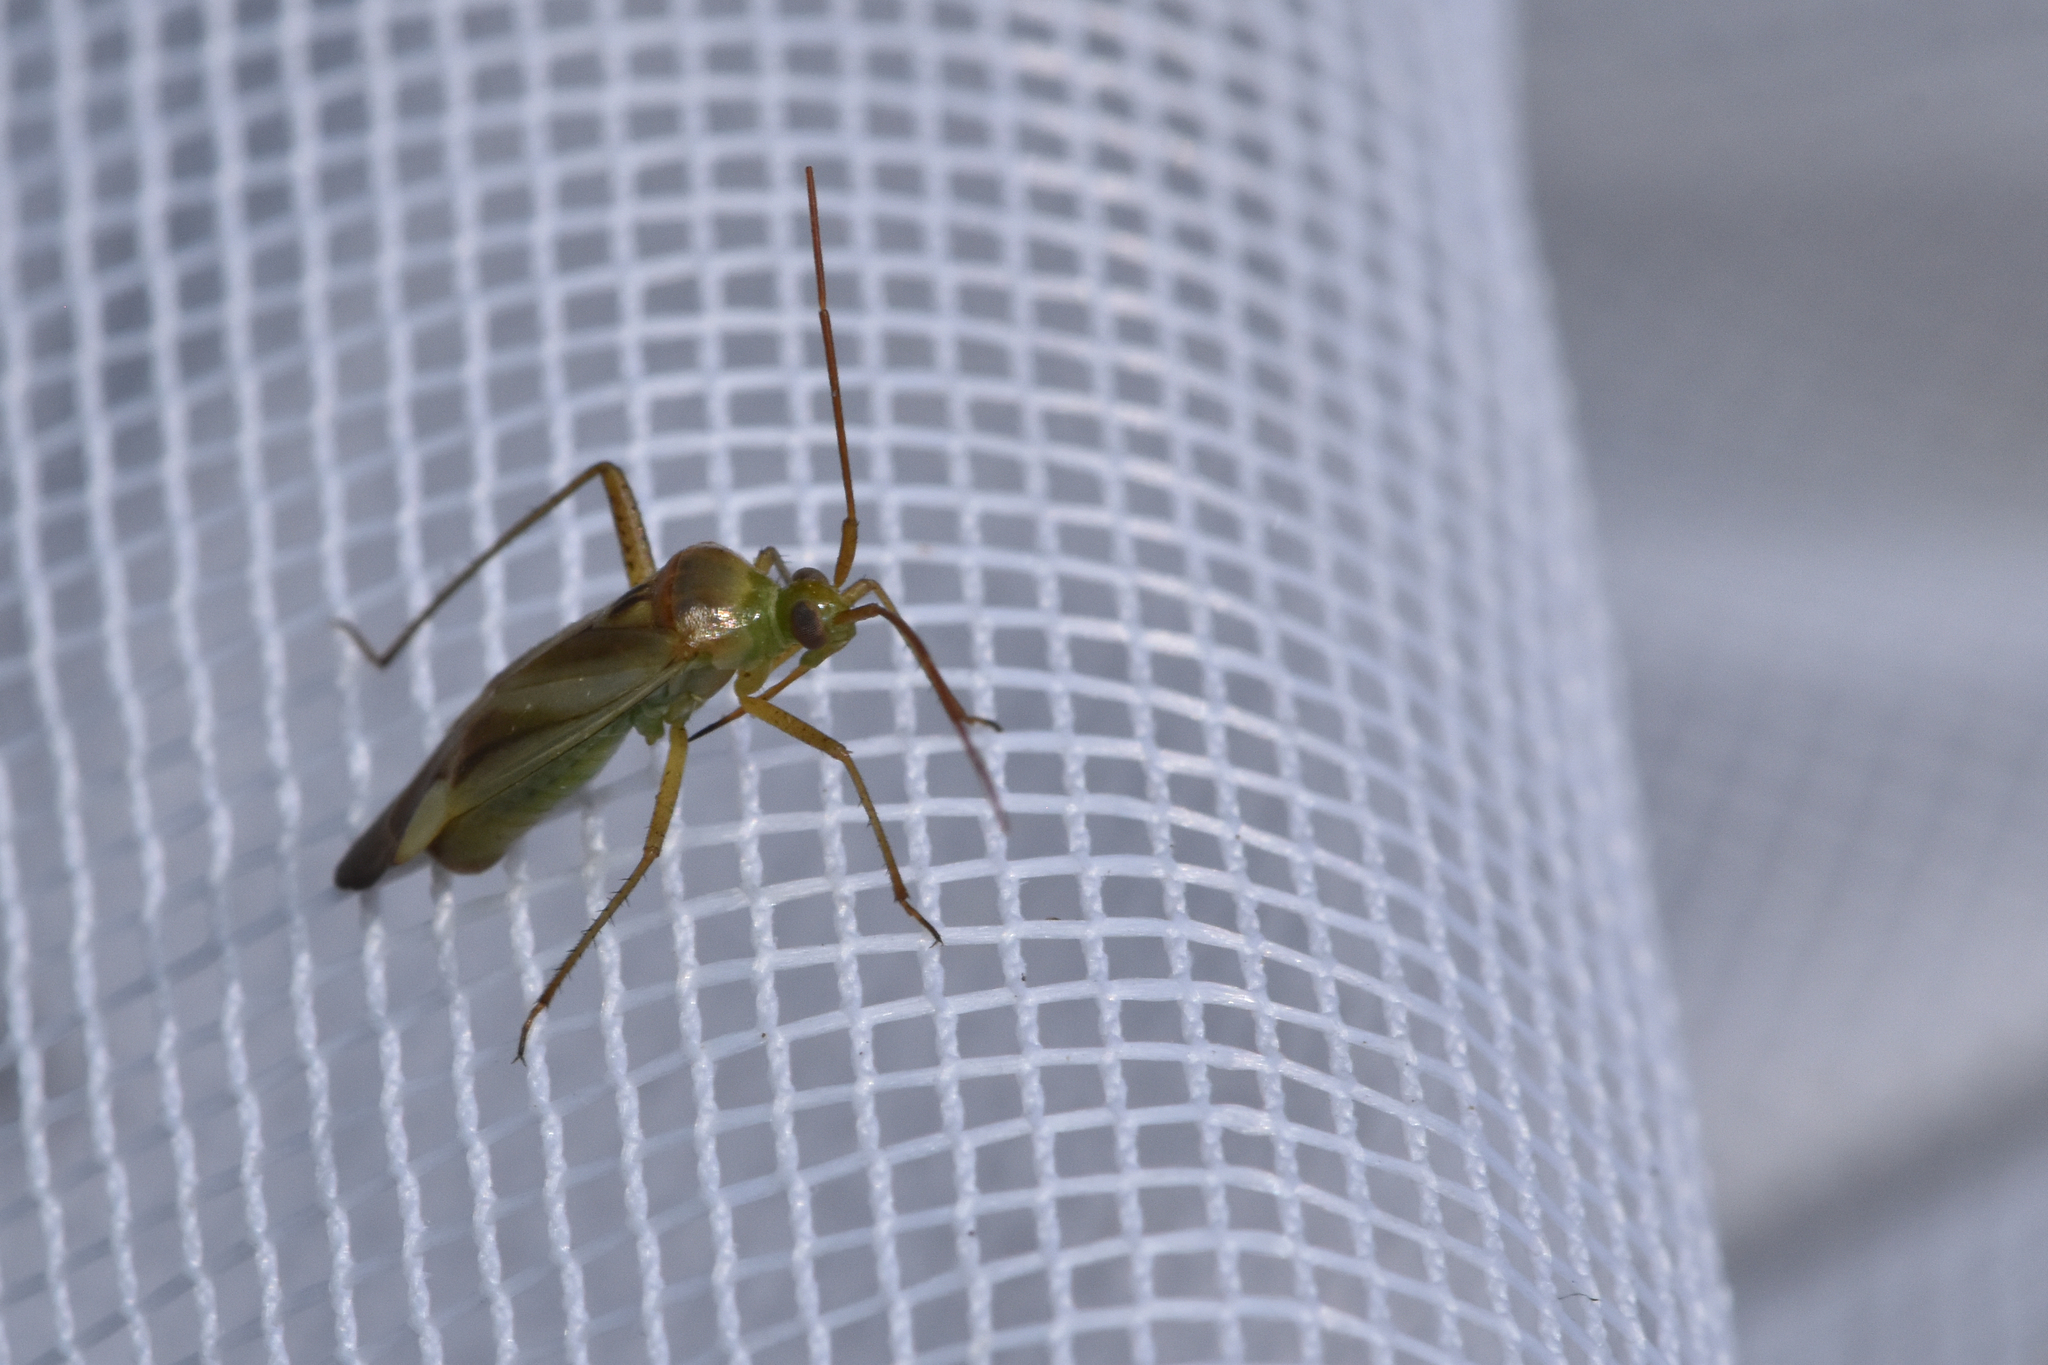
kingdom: Animalia
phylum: Arthropoda
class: Insecta
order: Hemiptera
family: Miridae
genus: Adelphocoris
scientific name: Adelphocoris lineolatus
